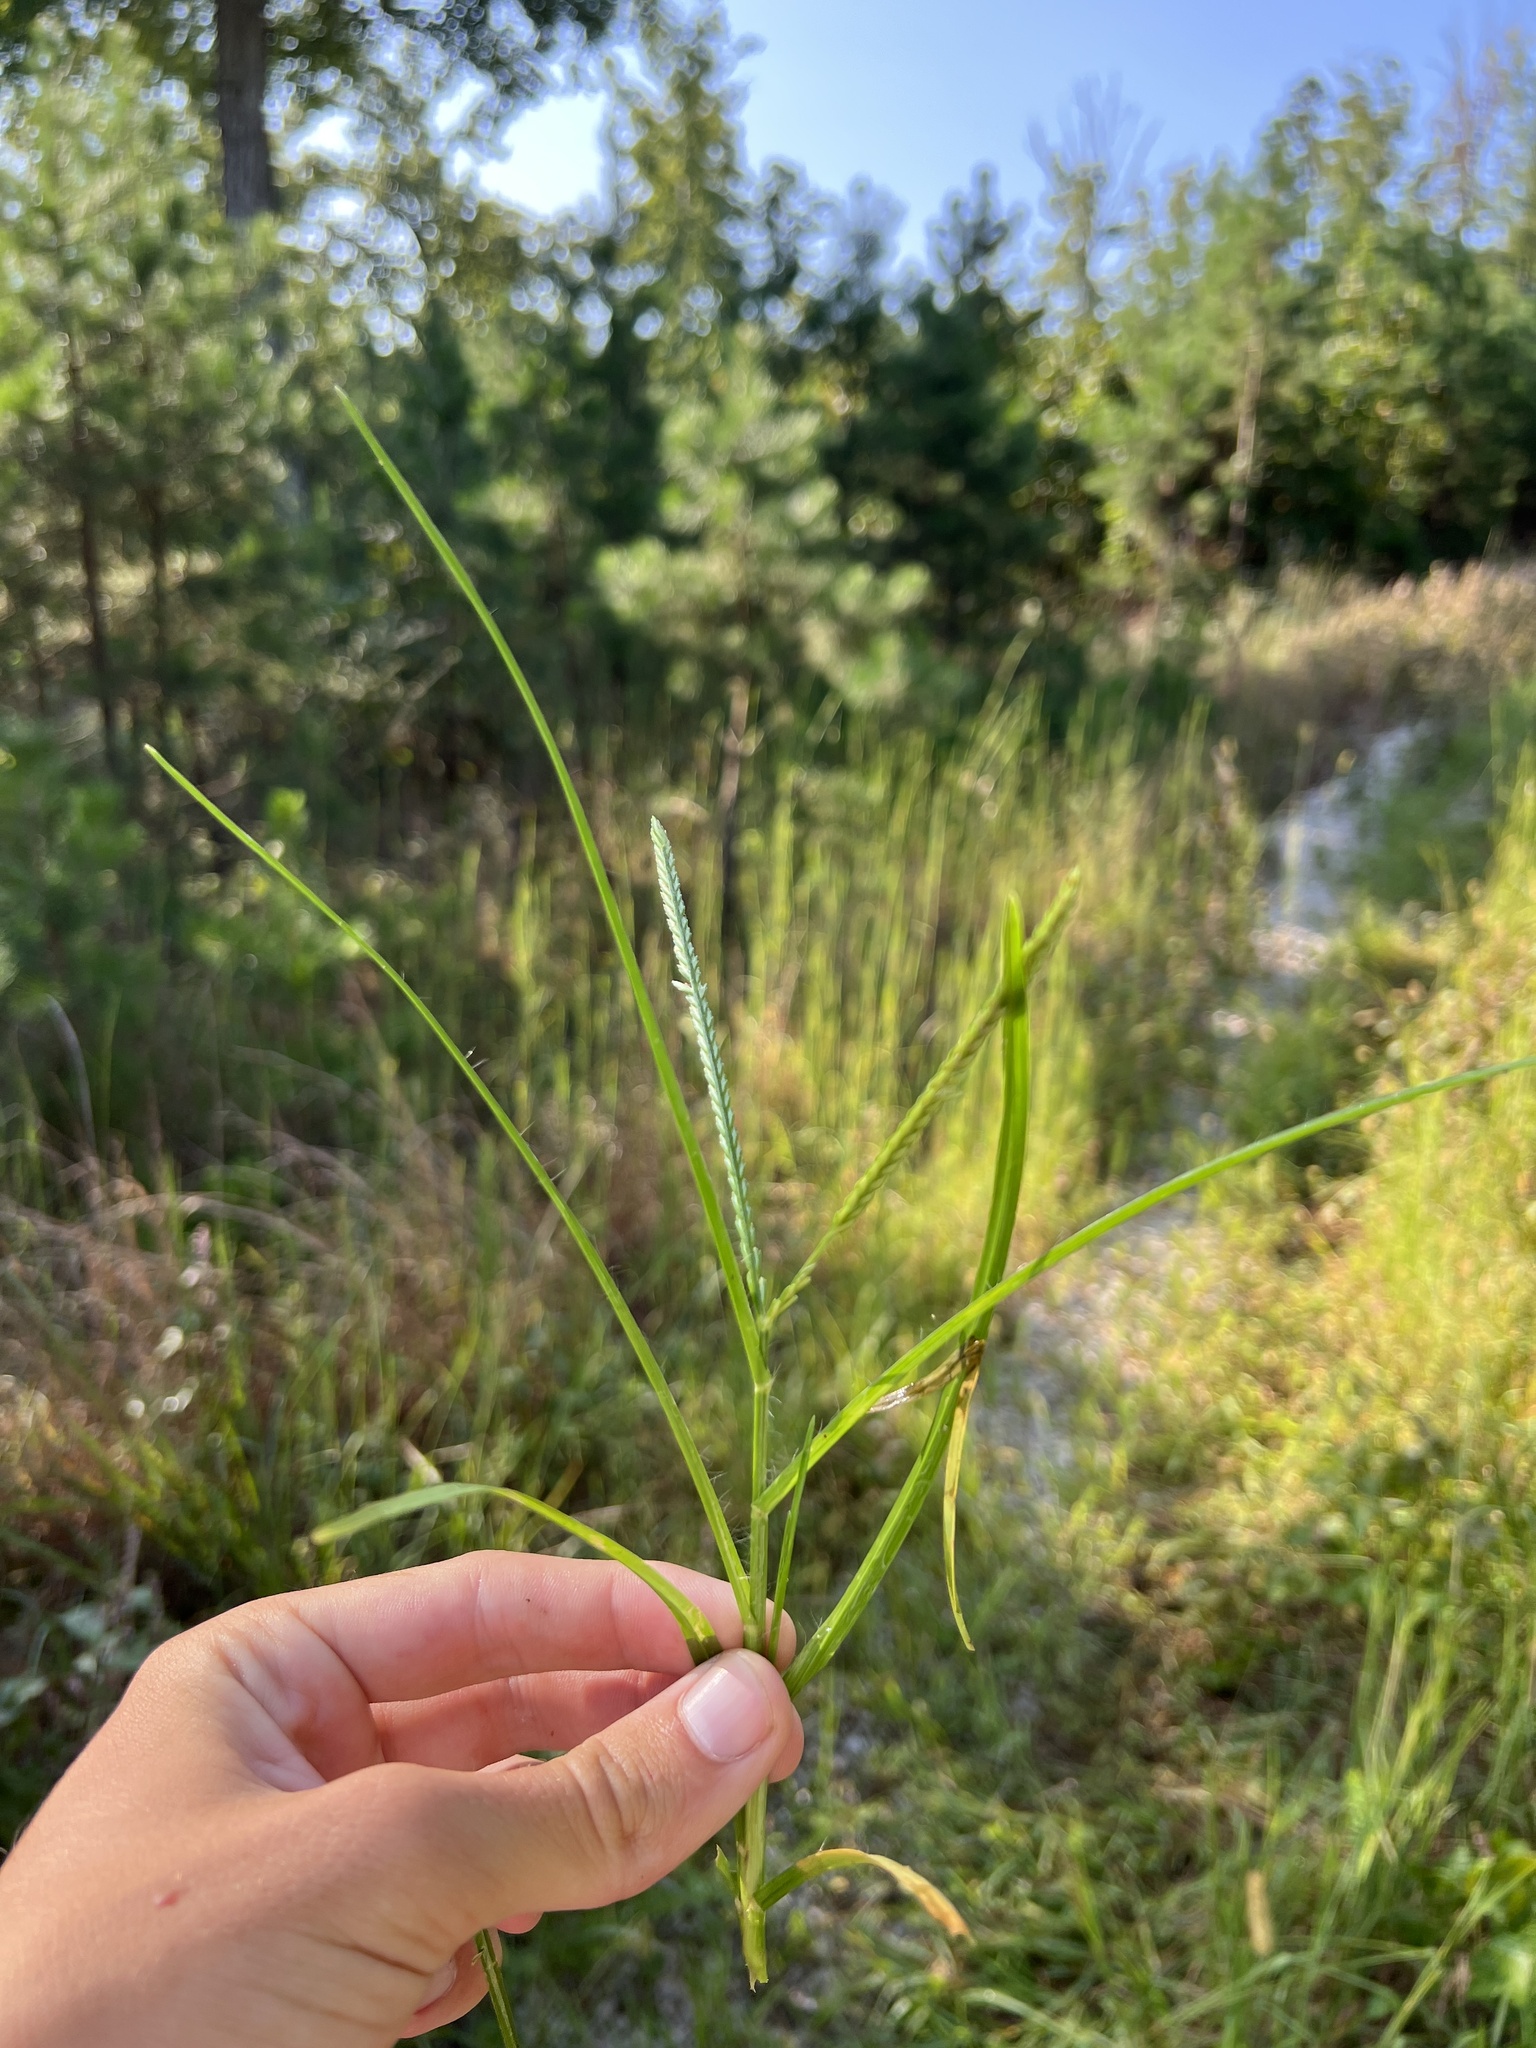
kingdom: Plantae
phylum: Tracheophyta
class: Liliopsida
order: Poales
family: Poaceae
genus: Eleusine
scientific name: Eleusine indica
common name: Yard-grass
